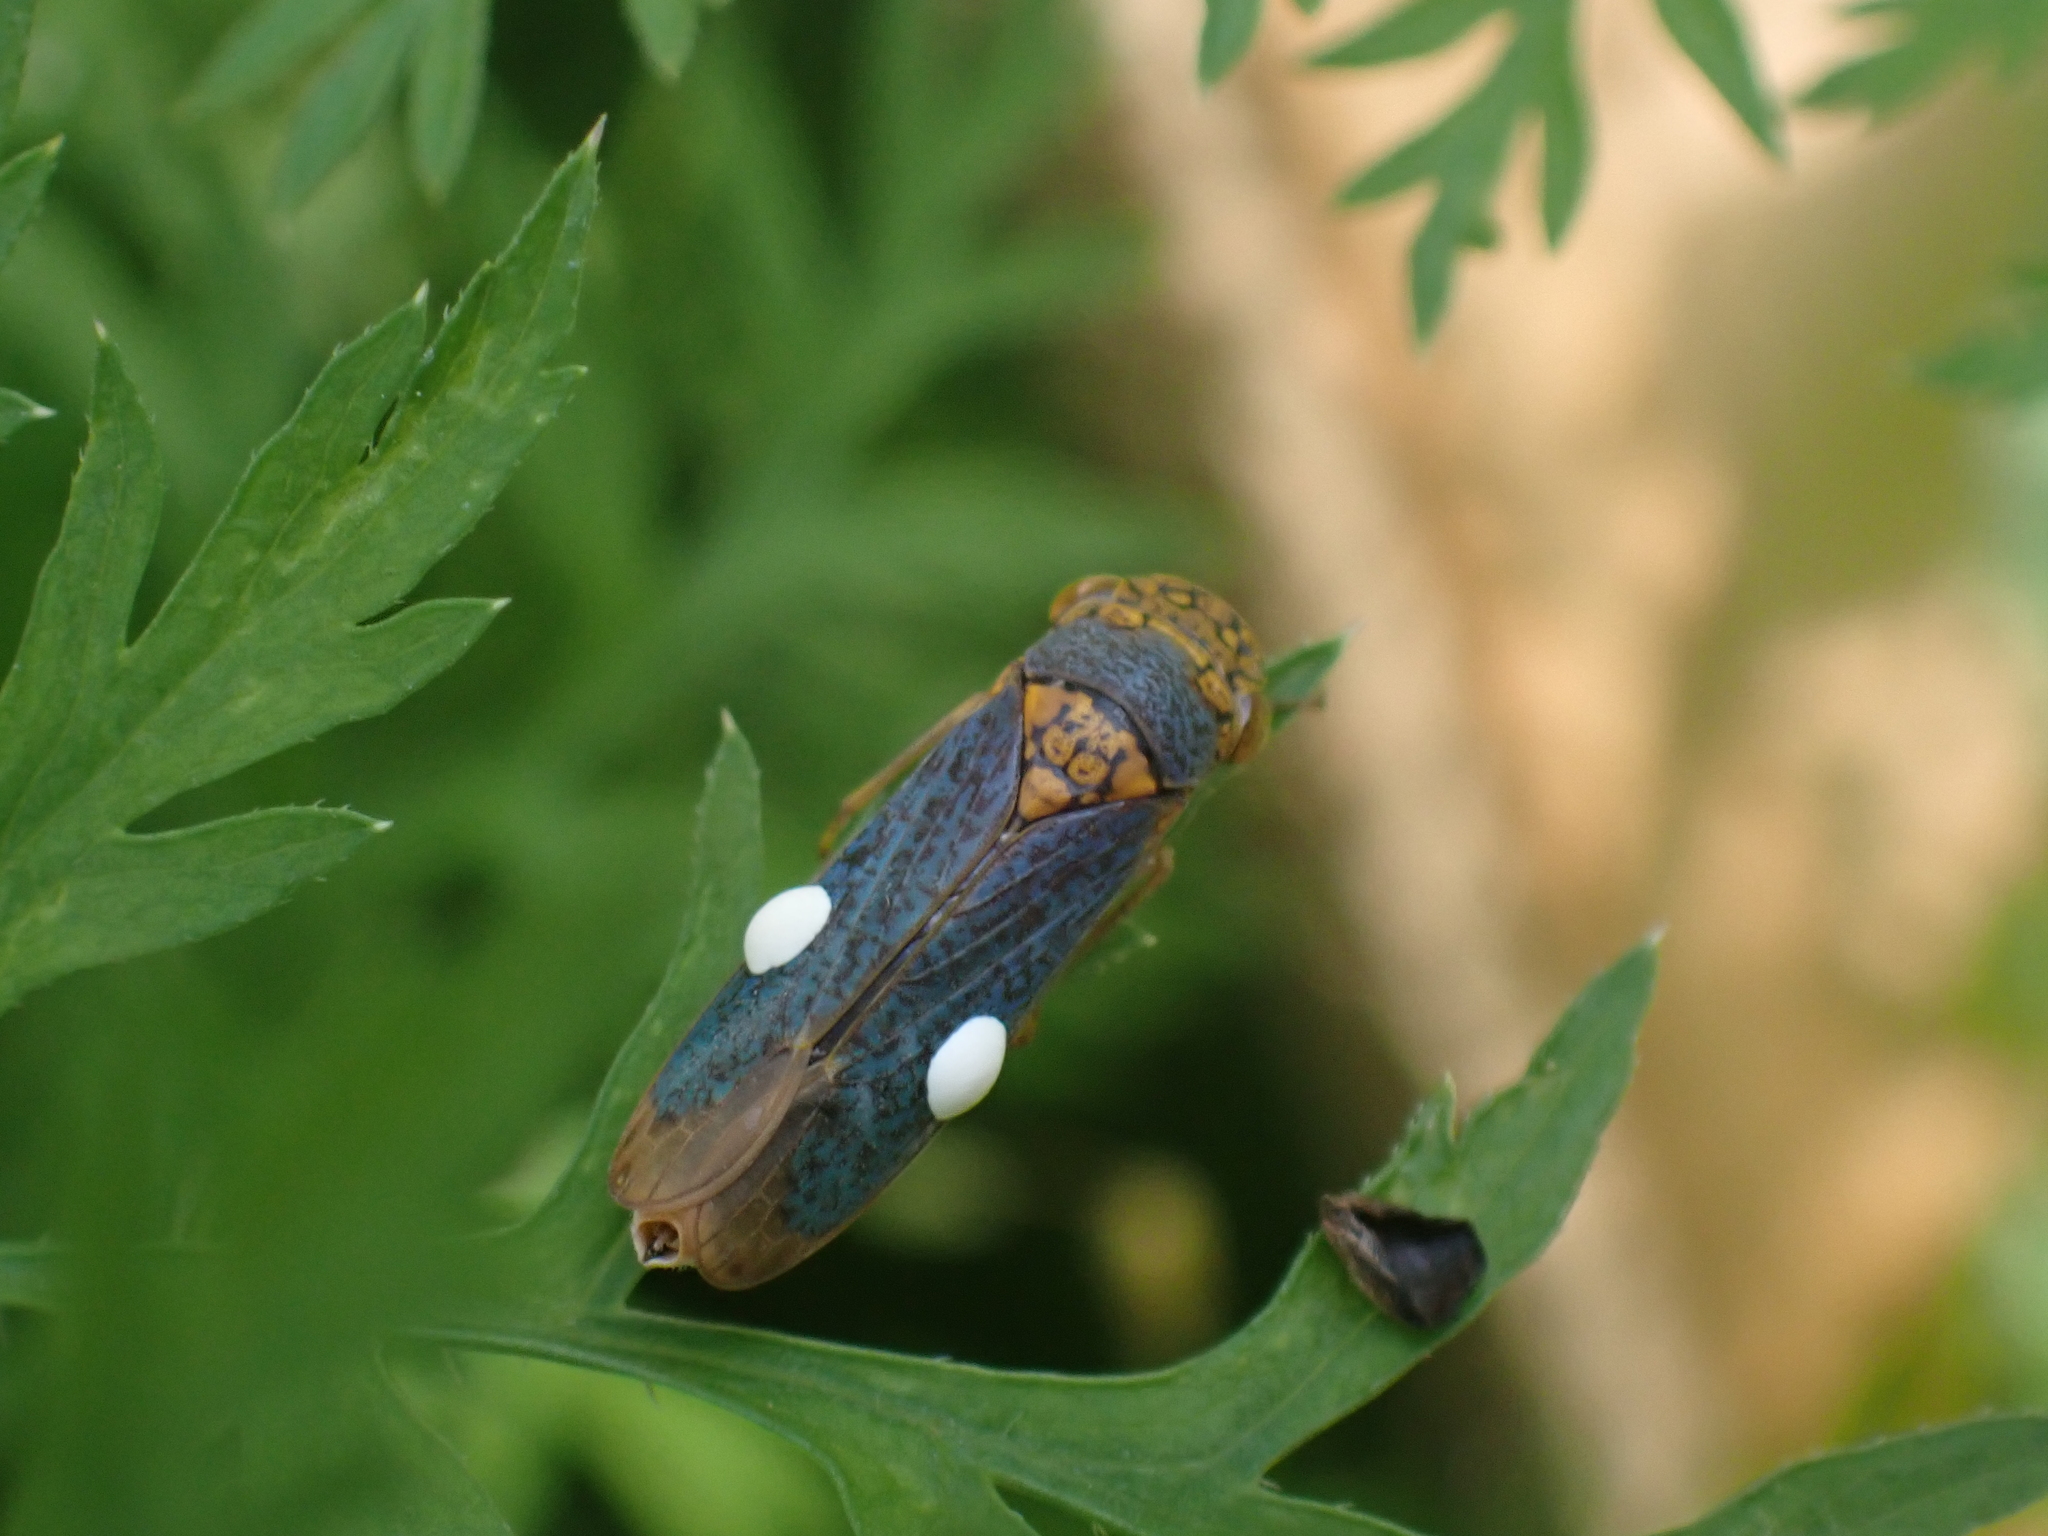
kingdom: Animalia
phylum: Arthropoda
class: Insecta
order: Hemiptera
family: Cicadellidae
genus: Oncometopia
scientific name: Oncometopia orbona
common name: Broad-headed sharpshooter
